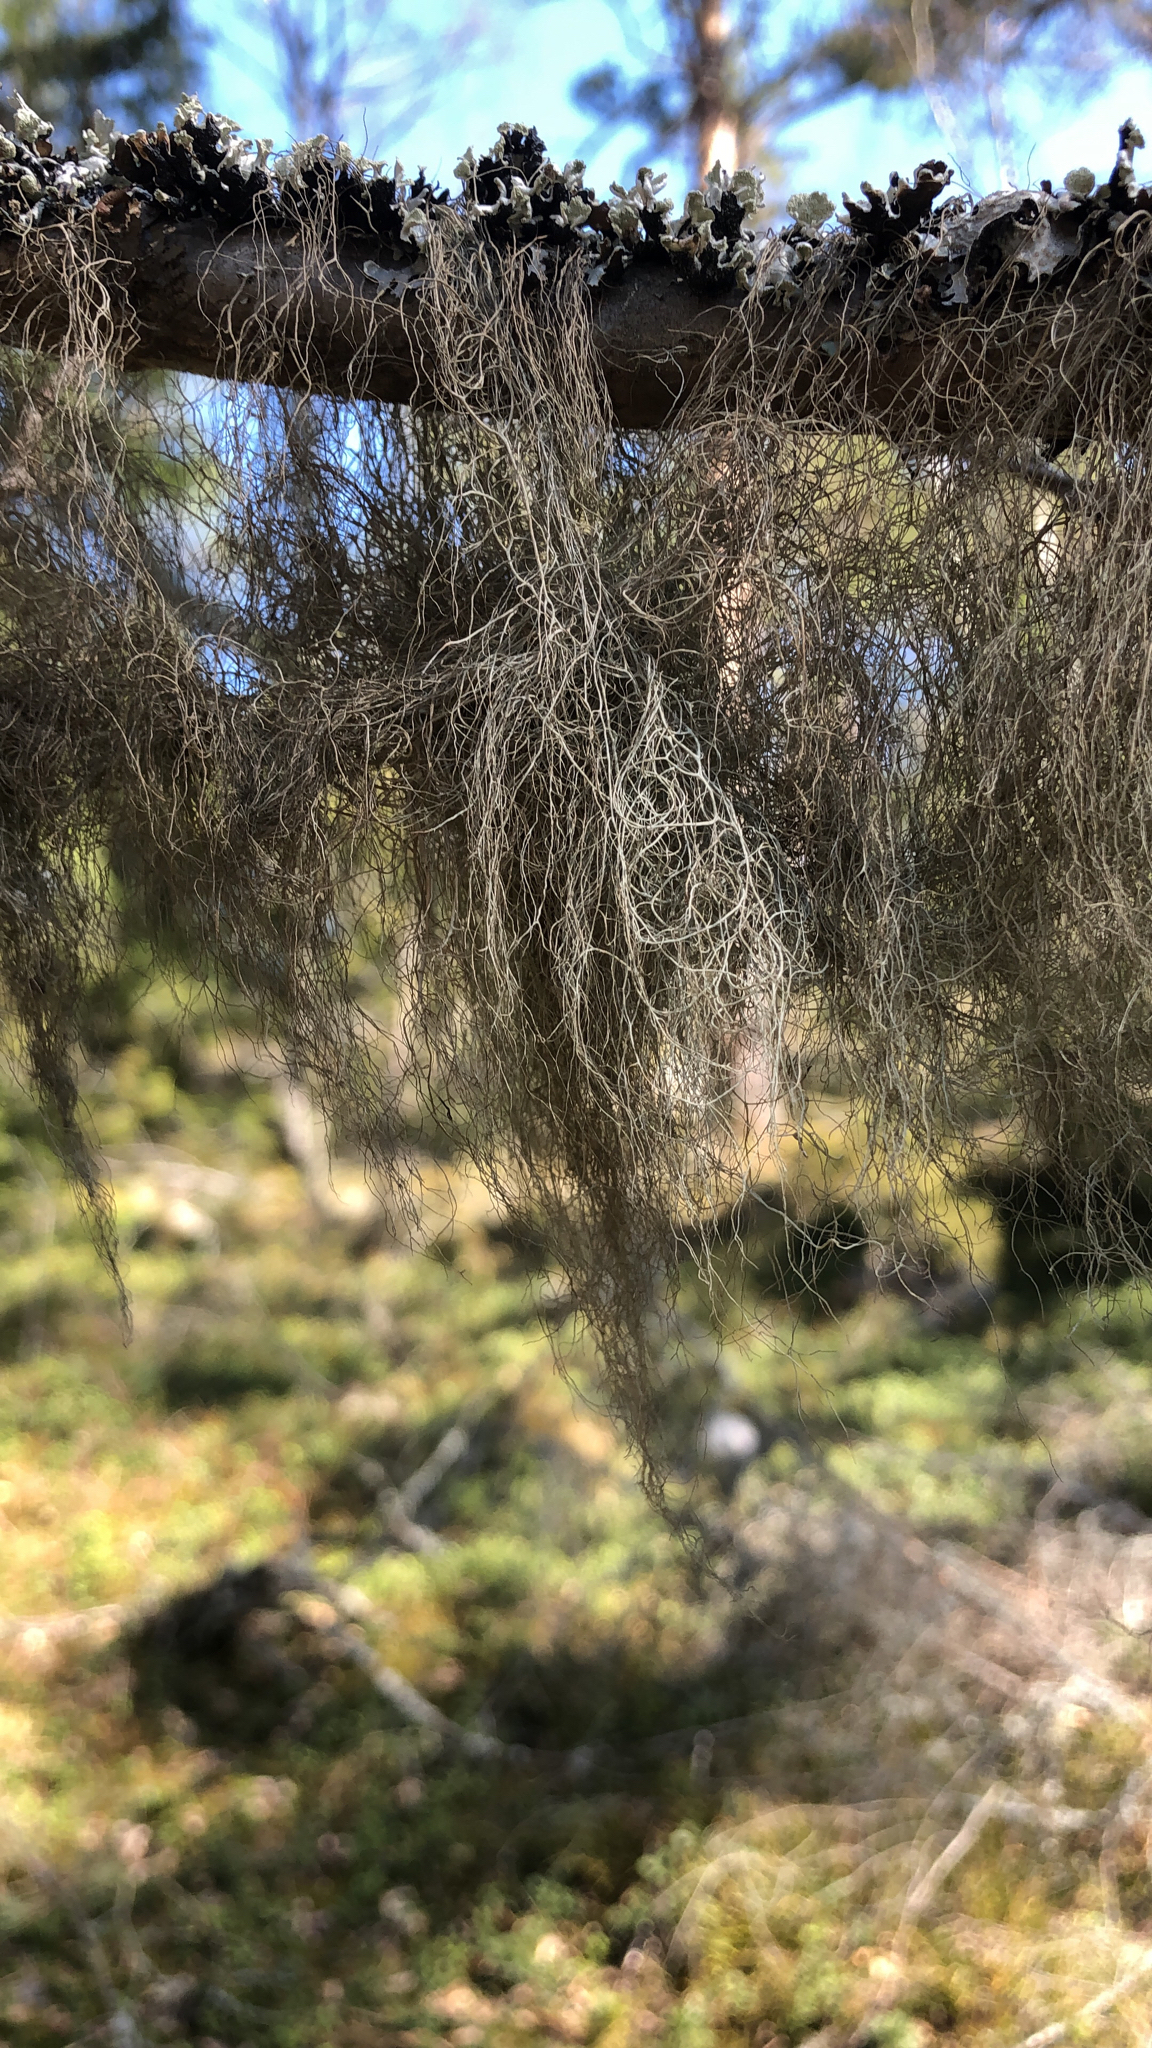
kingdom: Fungi
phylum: Ascomycota
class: Lecanoromycetes
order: Lecanorales
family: Parmeliaceae
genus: Bryoria
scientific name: Bryoria fuscescens
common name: Pale-footed horsehair lichen
